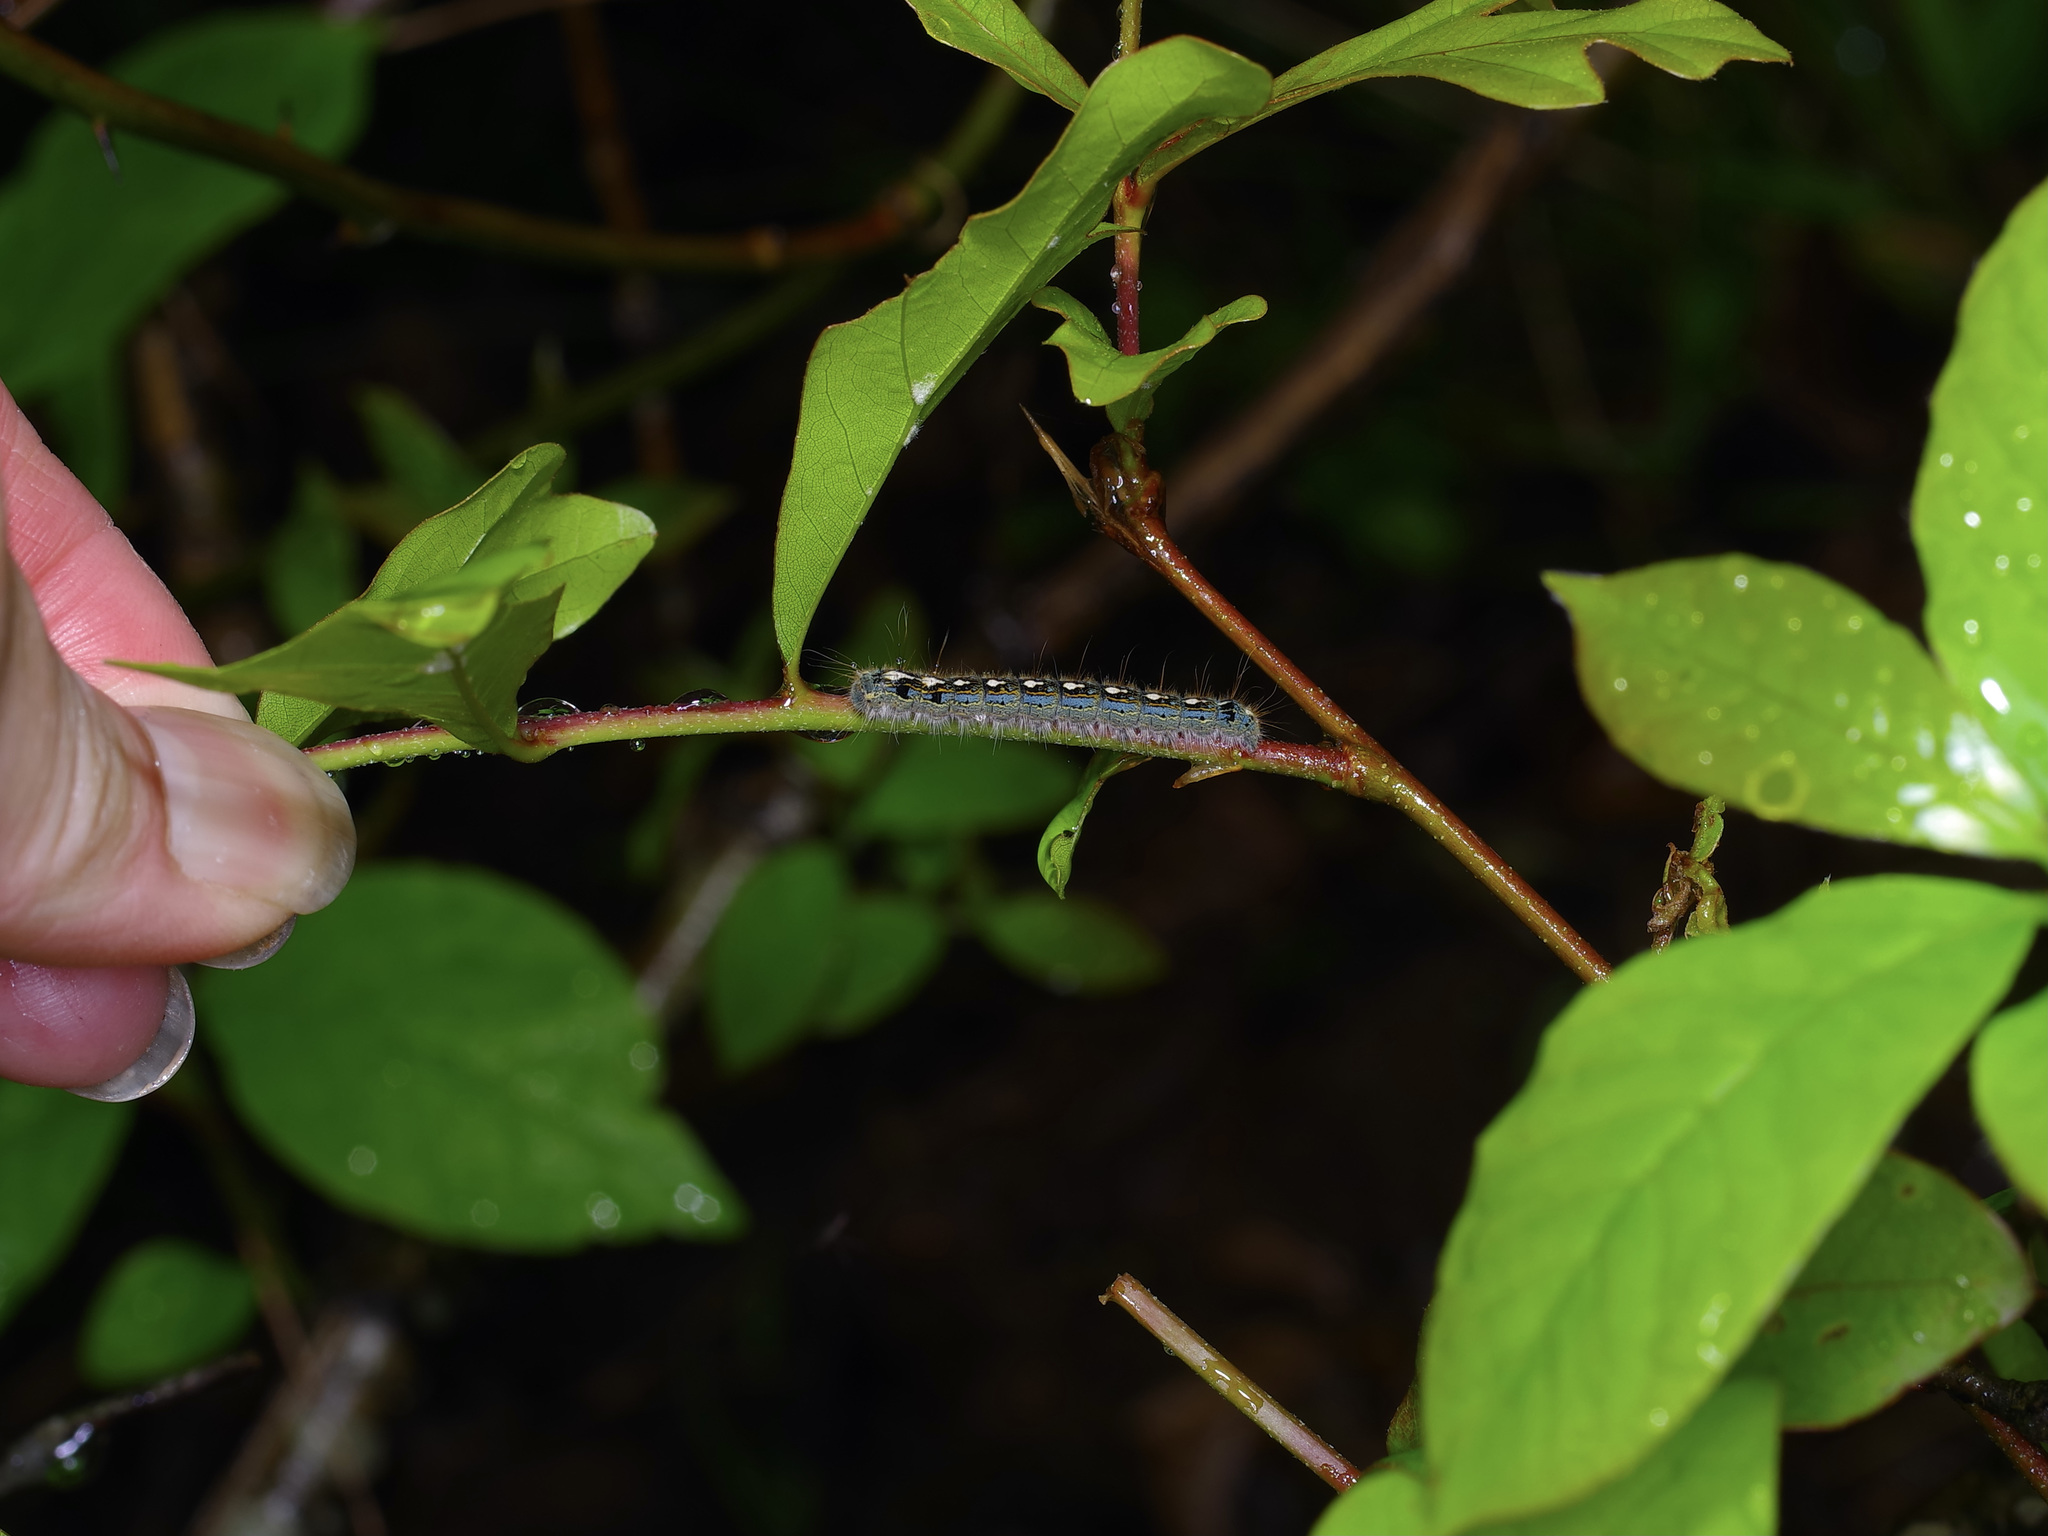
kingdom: Animalia
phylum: Arthropoda
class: Insecta
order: Lepidoptera
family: Lasiocampidae
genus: Malacosoma
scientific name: Malacosoma disstria
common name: Forest tent caterpillar
